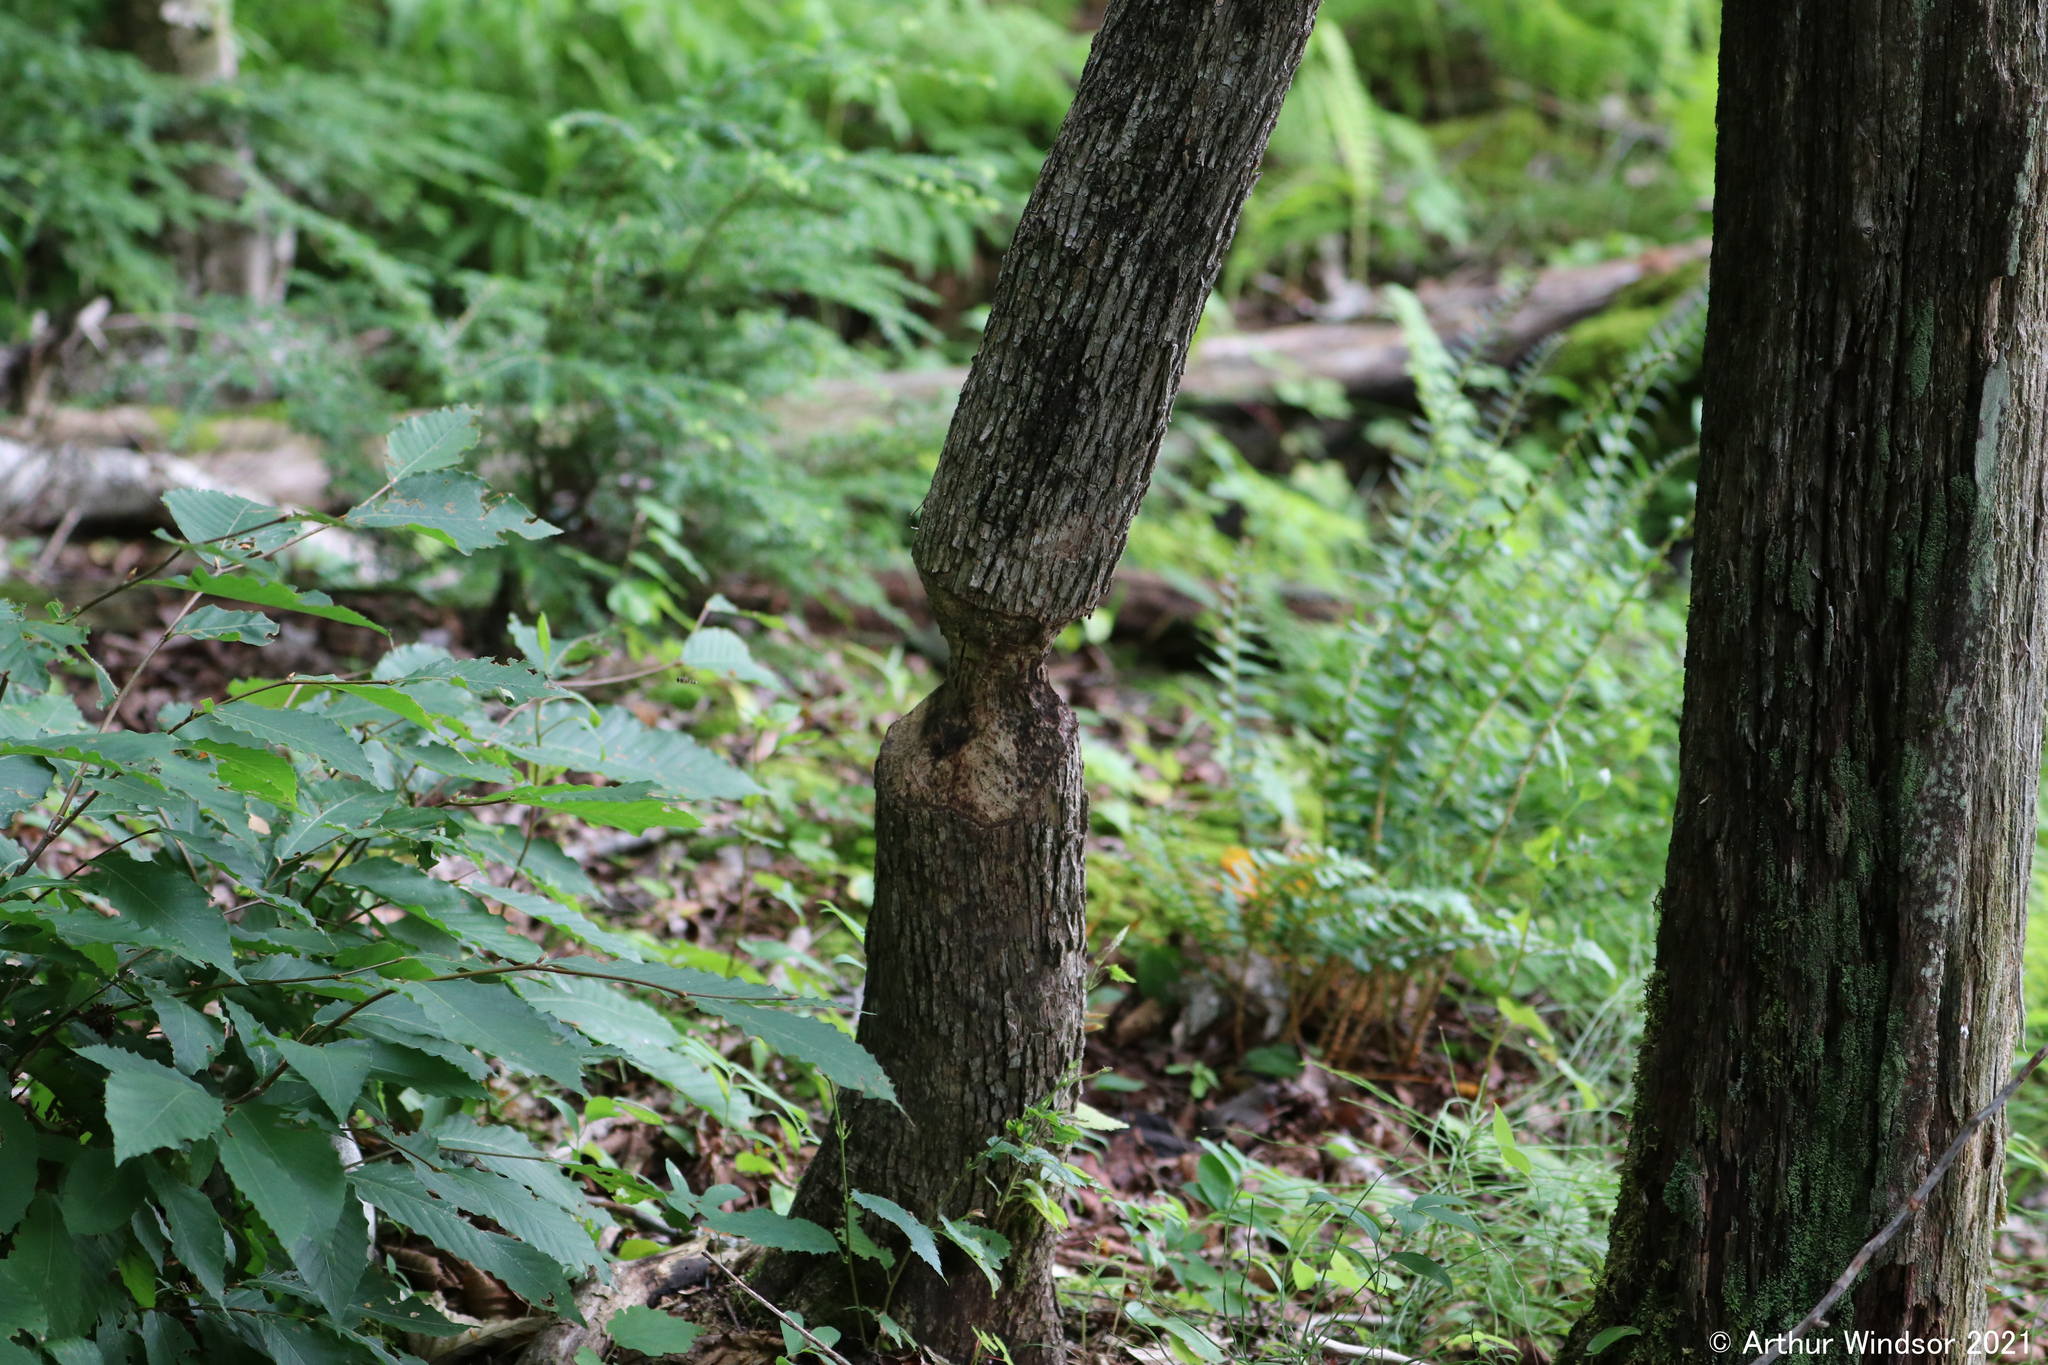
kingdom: Animalia
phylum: Chordata
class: Mammalia
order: Rodentia
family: Castoridae
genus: Castor
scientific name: Castor canadensis
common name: American beaver
